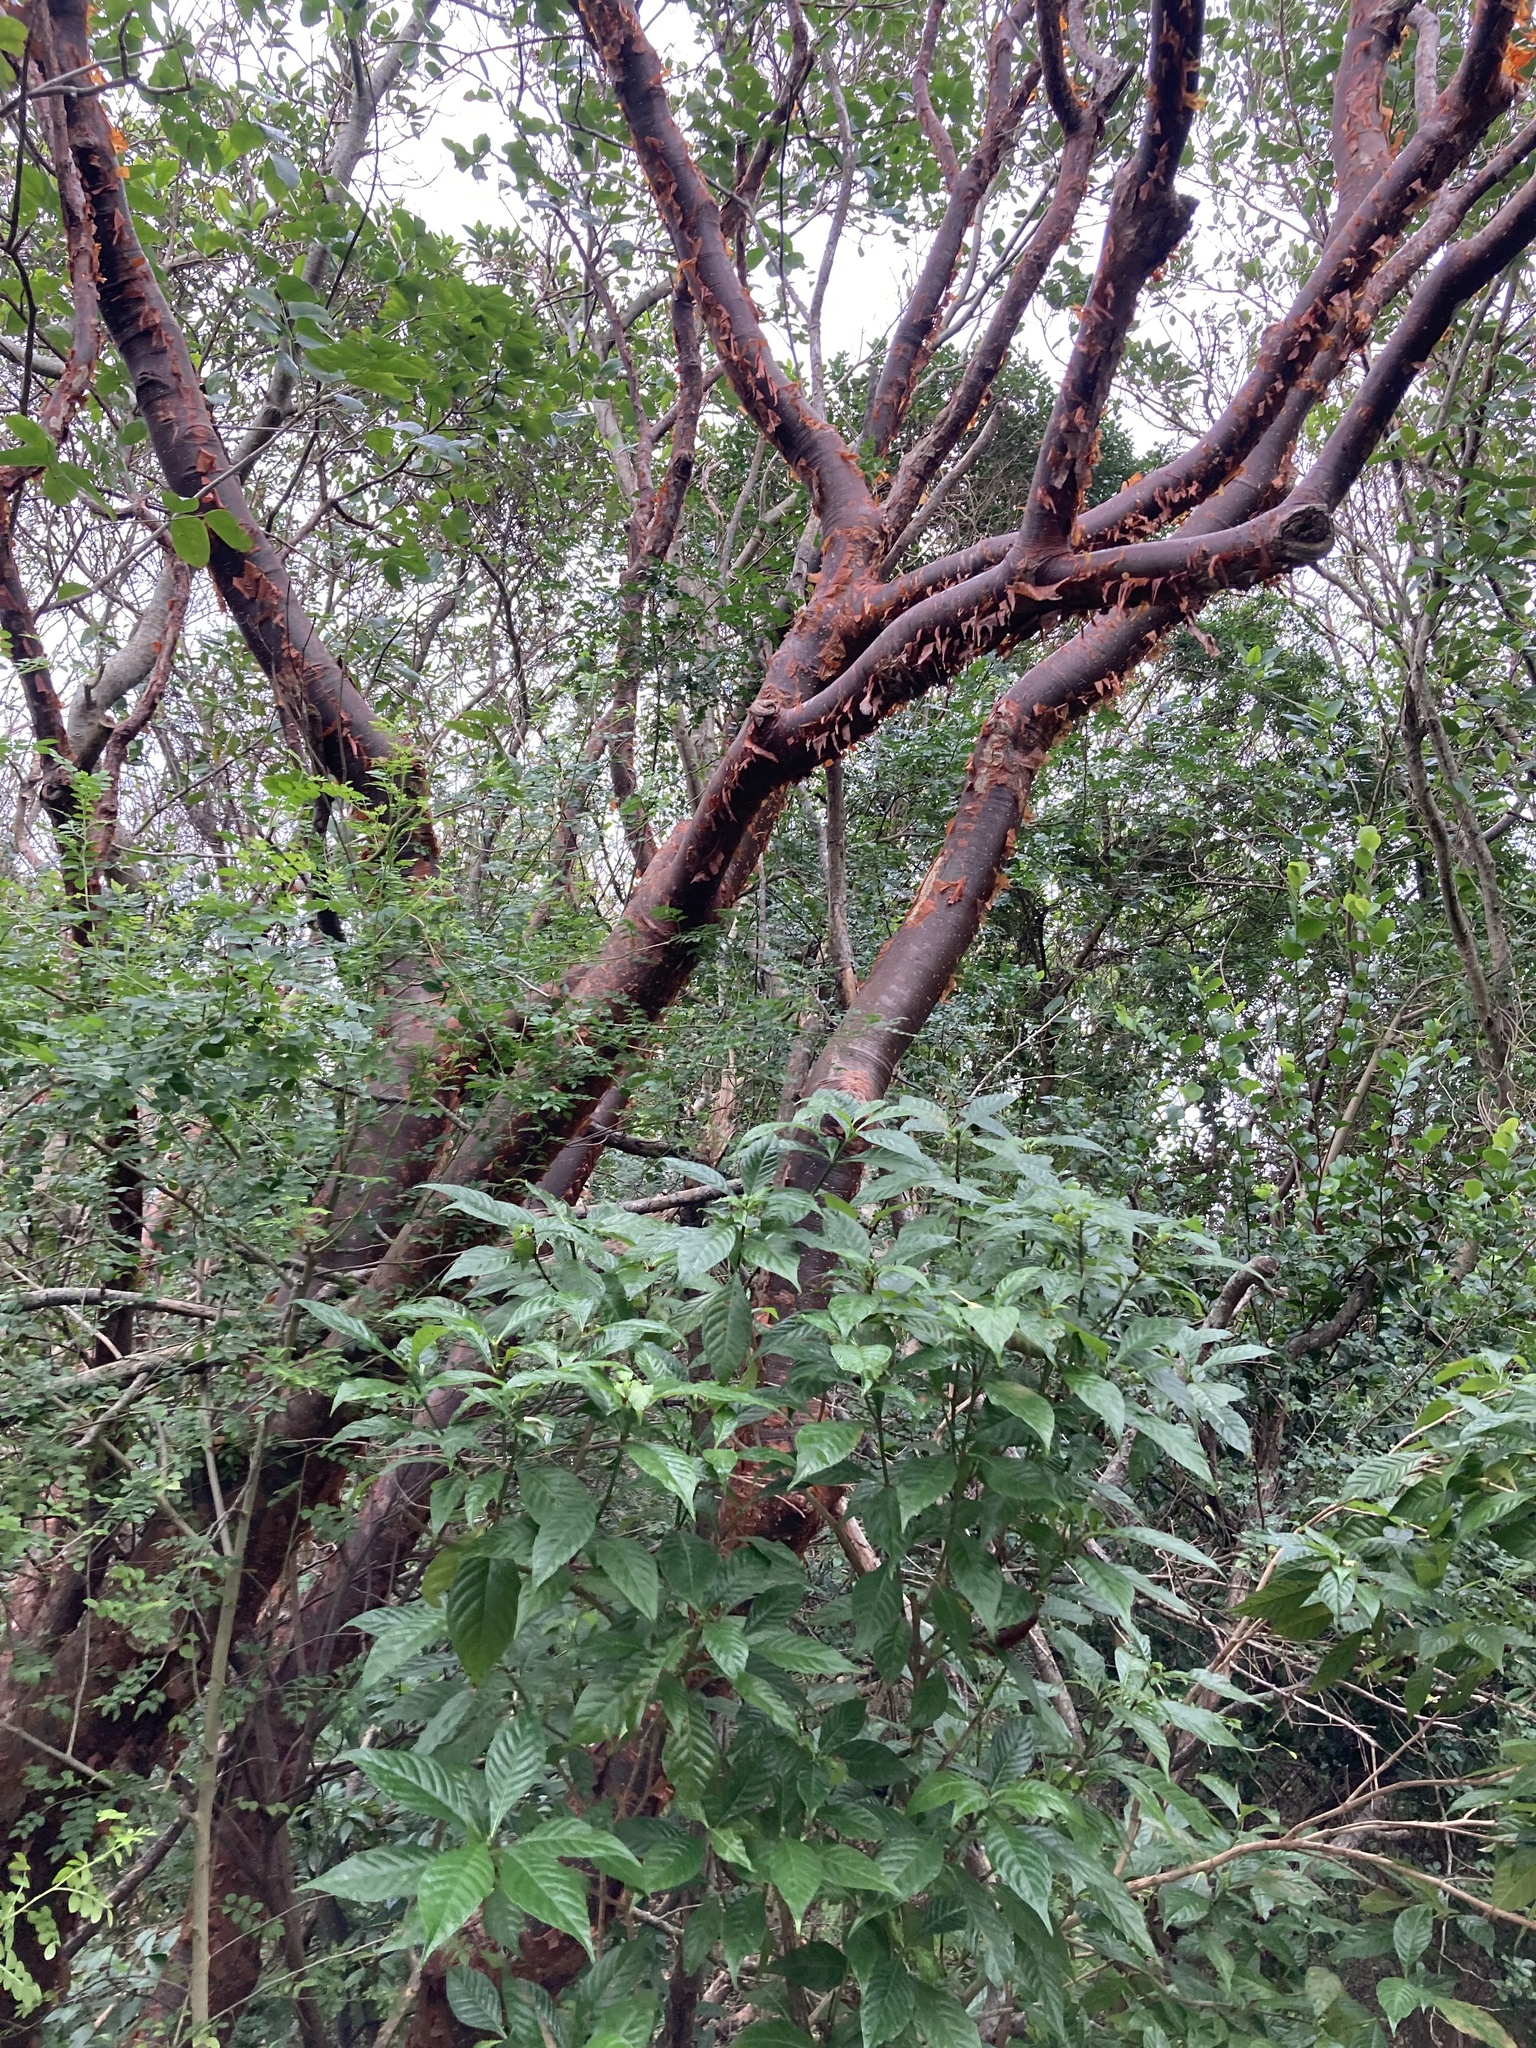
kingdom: Plantae
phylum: Tracheophyta
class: Magnoliopsida
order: Sapindales
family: Burseraceae
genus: Bursera
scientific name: Bursera simaruba
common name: Turpentine tree
